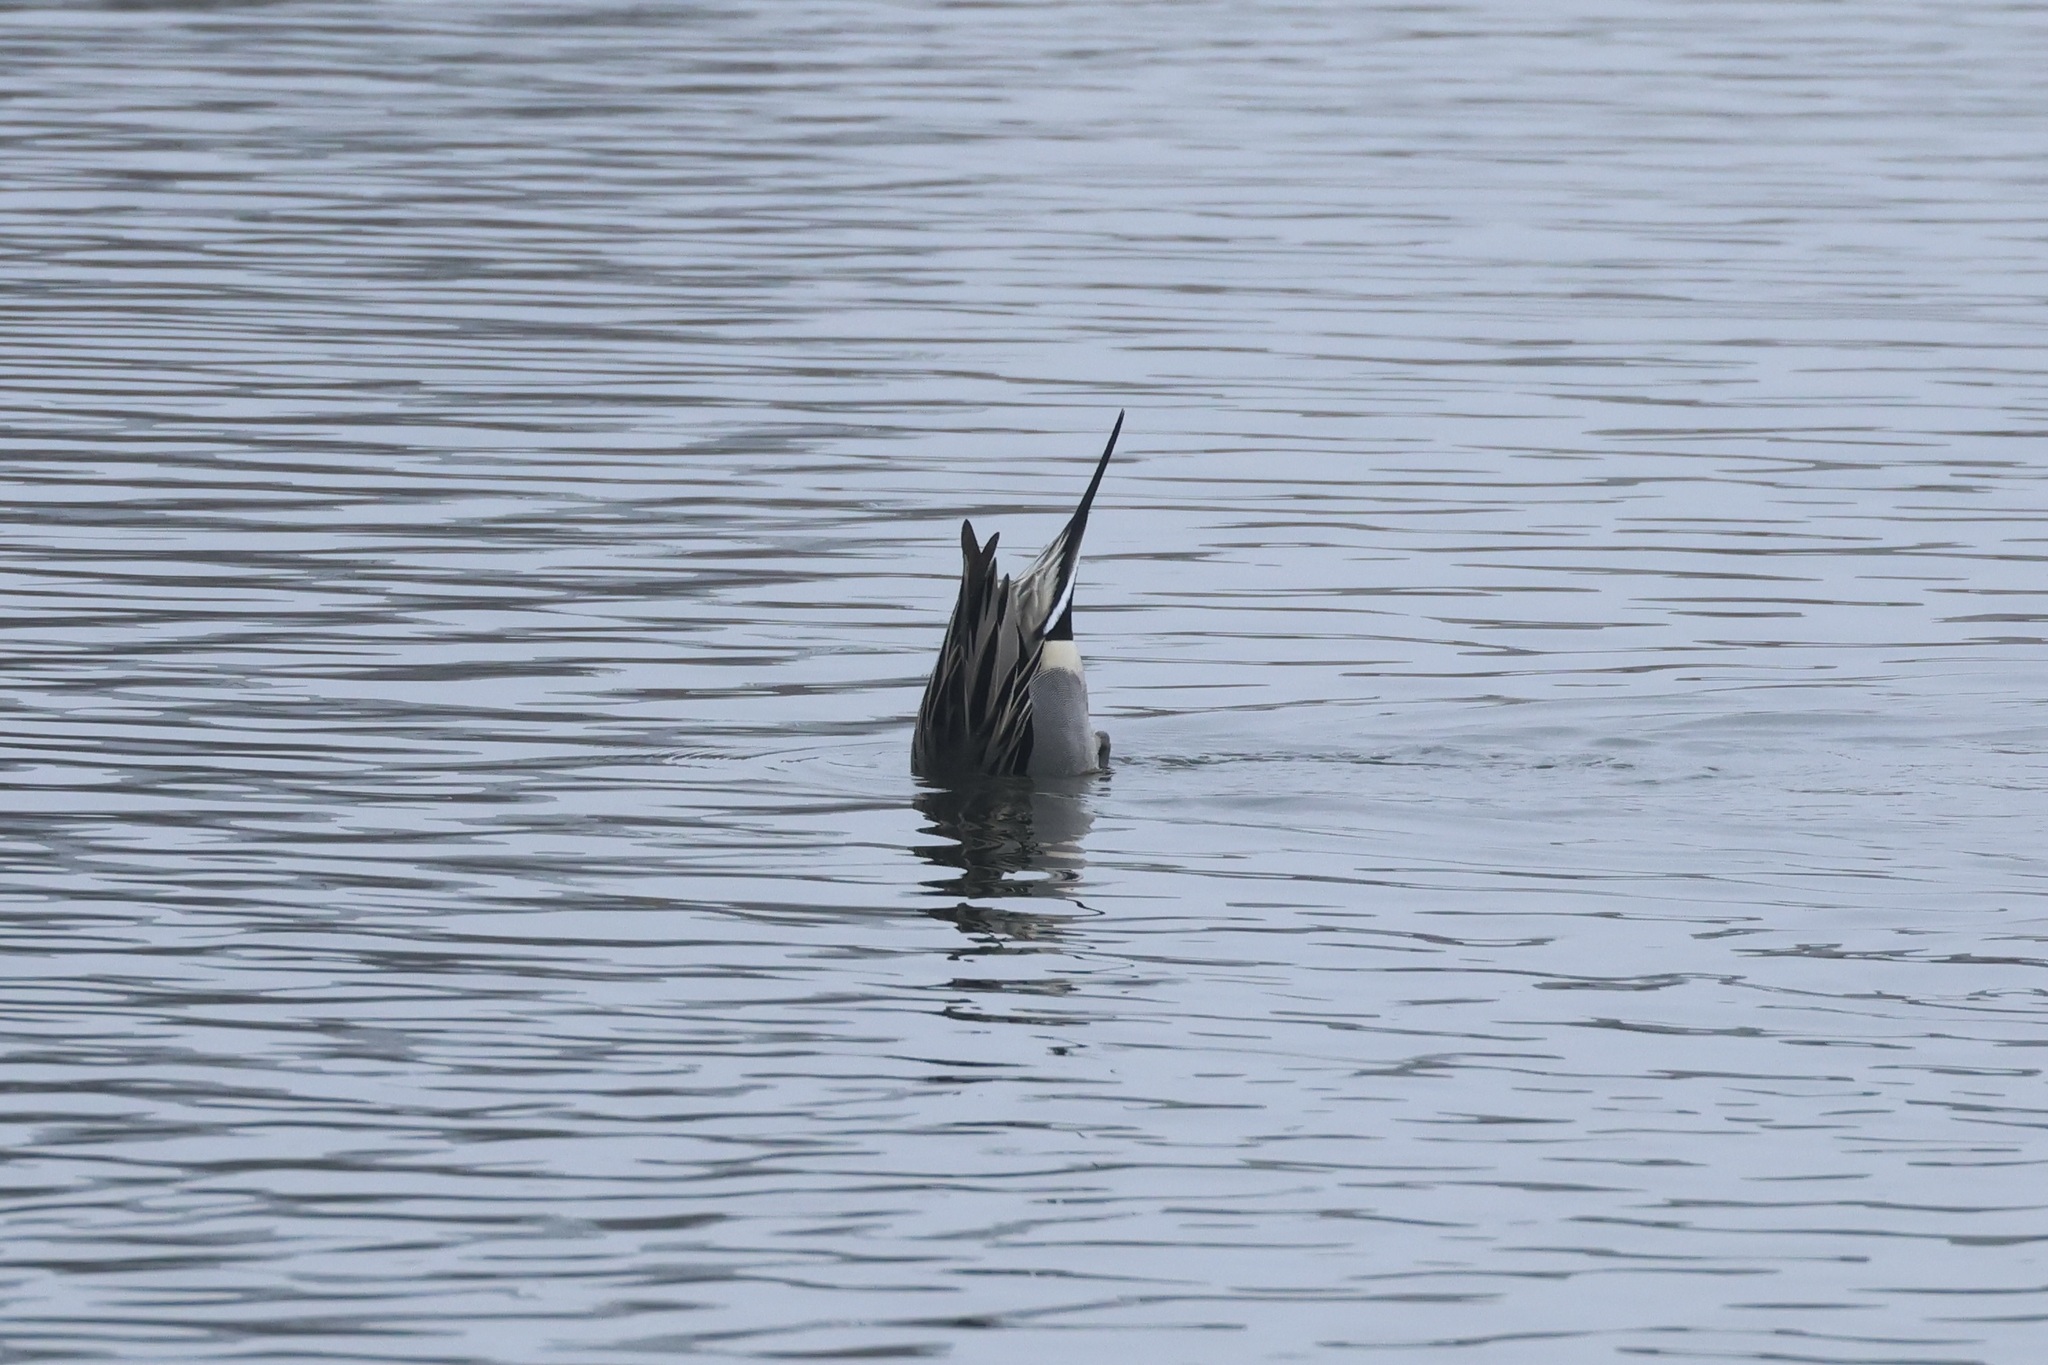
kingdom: Animalia
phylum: Chordata
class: Aves
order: Anseriformes
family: Anatidae
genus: Anas
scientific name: Anas acuta
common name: Northern pintail
